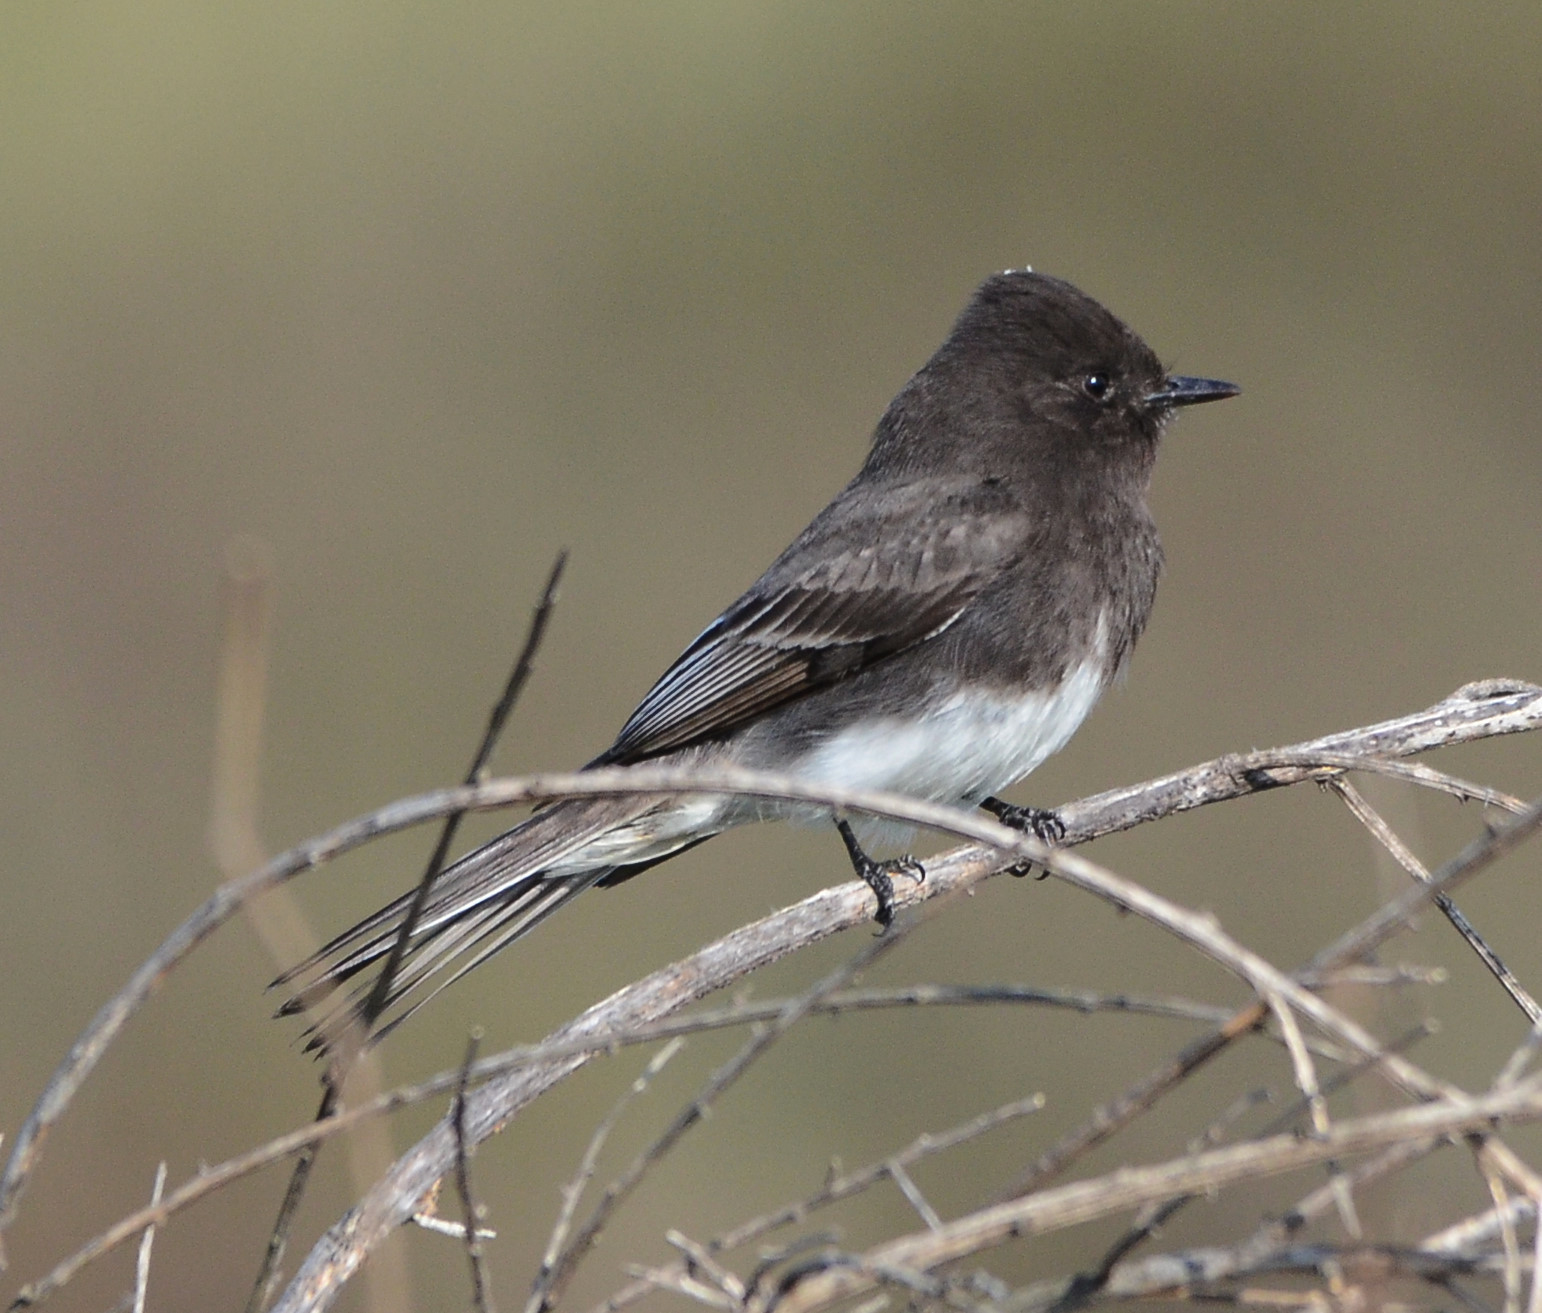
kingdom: Animalia
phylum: Chordata
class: Aves
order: Passeriformes
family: Tyrannidae
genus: Sayornis
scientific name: Sayornis nigricans
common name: Black phoebe
